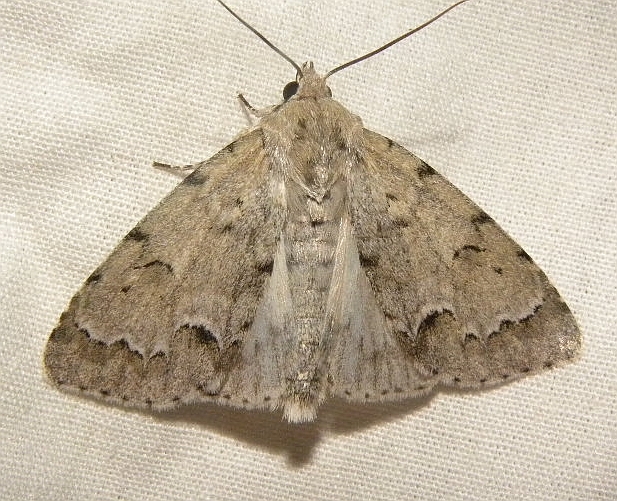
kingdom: Animalia
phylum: Arthropoda
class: Insecta
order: Lepidoptera
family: Noctuidae
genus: Acronicta
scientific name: Acronicta innotata
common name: Unmarked dagger
